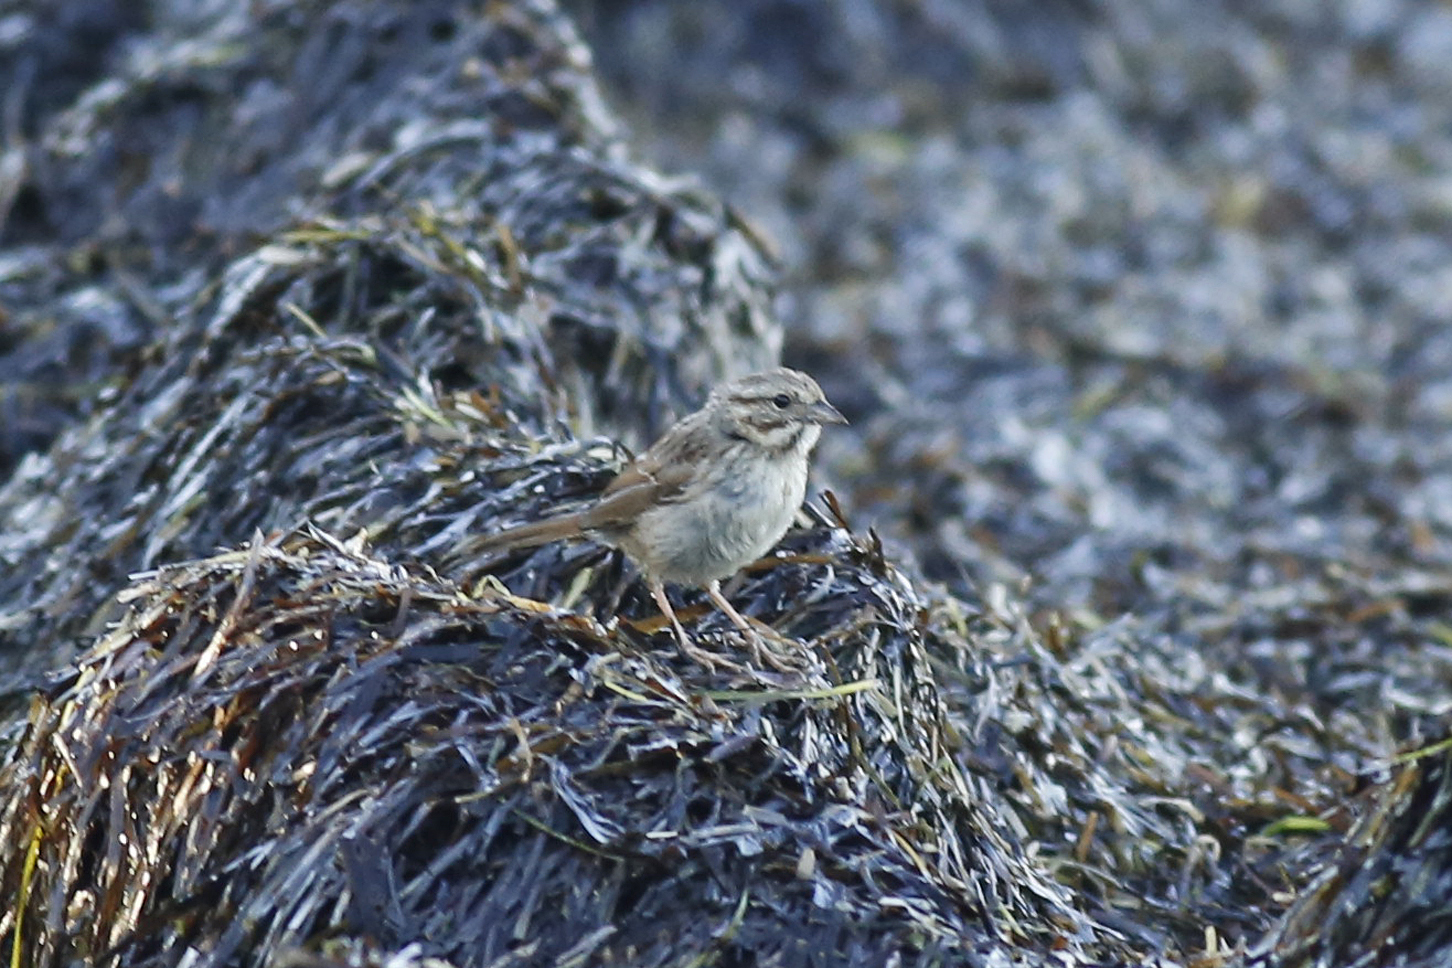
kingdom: Animalia
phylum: Chordata
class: Aves
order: Passeriformes
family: Passerellidae
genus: Melospiza
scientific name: Melospiza melodia
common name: Song sparrow
